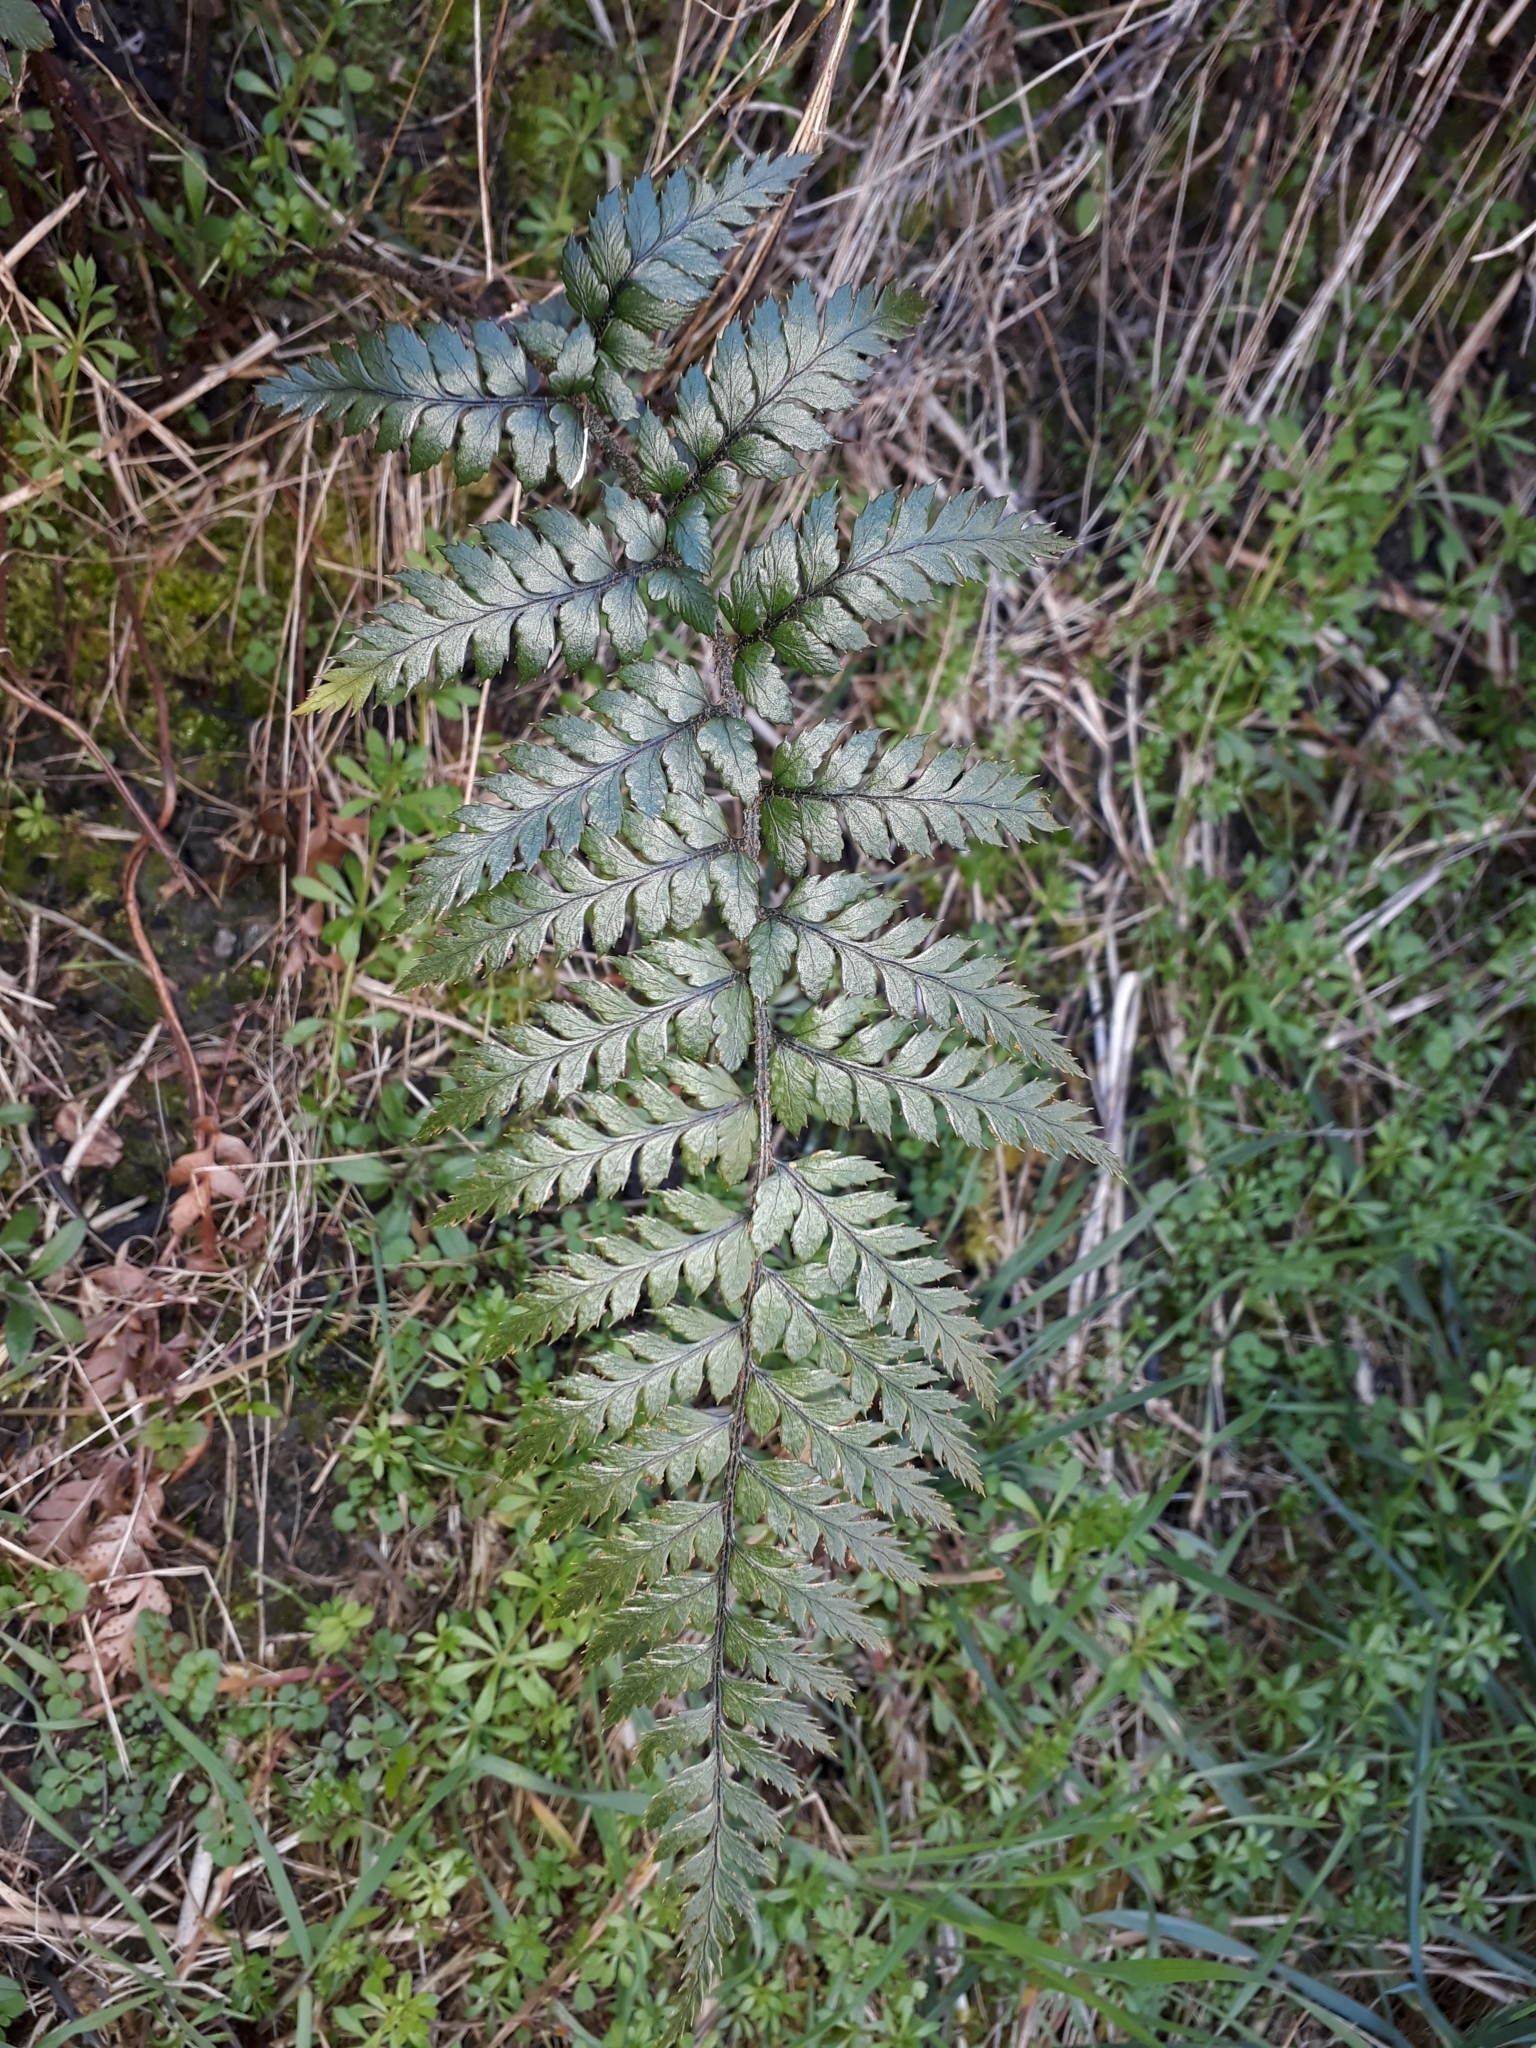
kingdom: Plantae
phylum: Tracheophyta
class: Polypodiopsida
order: Polypodiales
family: Dryopteridaceae
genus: Polystichum
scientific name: Polystichum neozelandicum
